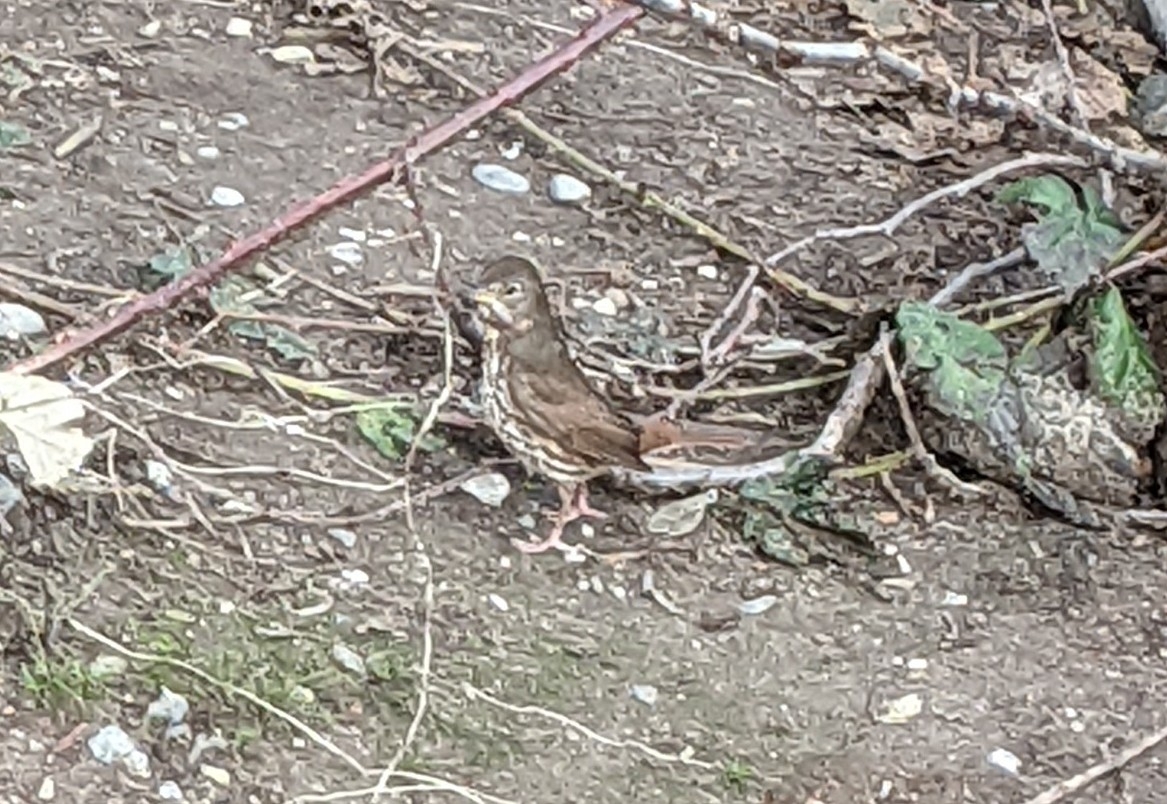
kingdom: Animalia
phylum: Chordata
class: Aves
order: Passeriformes
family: Passerellidae
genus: Passerella
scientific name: Passerella iliaca
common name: Fox sparrow
